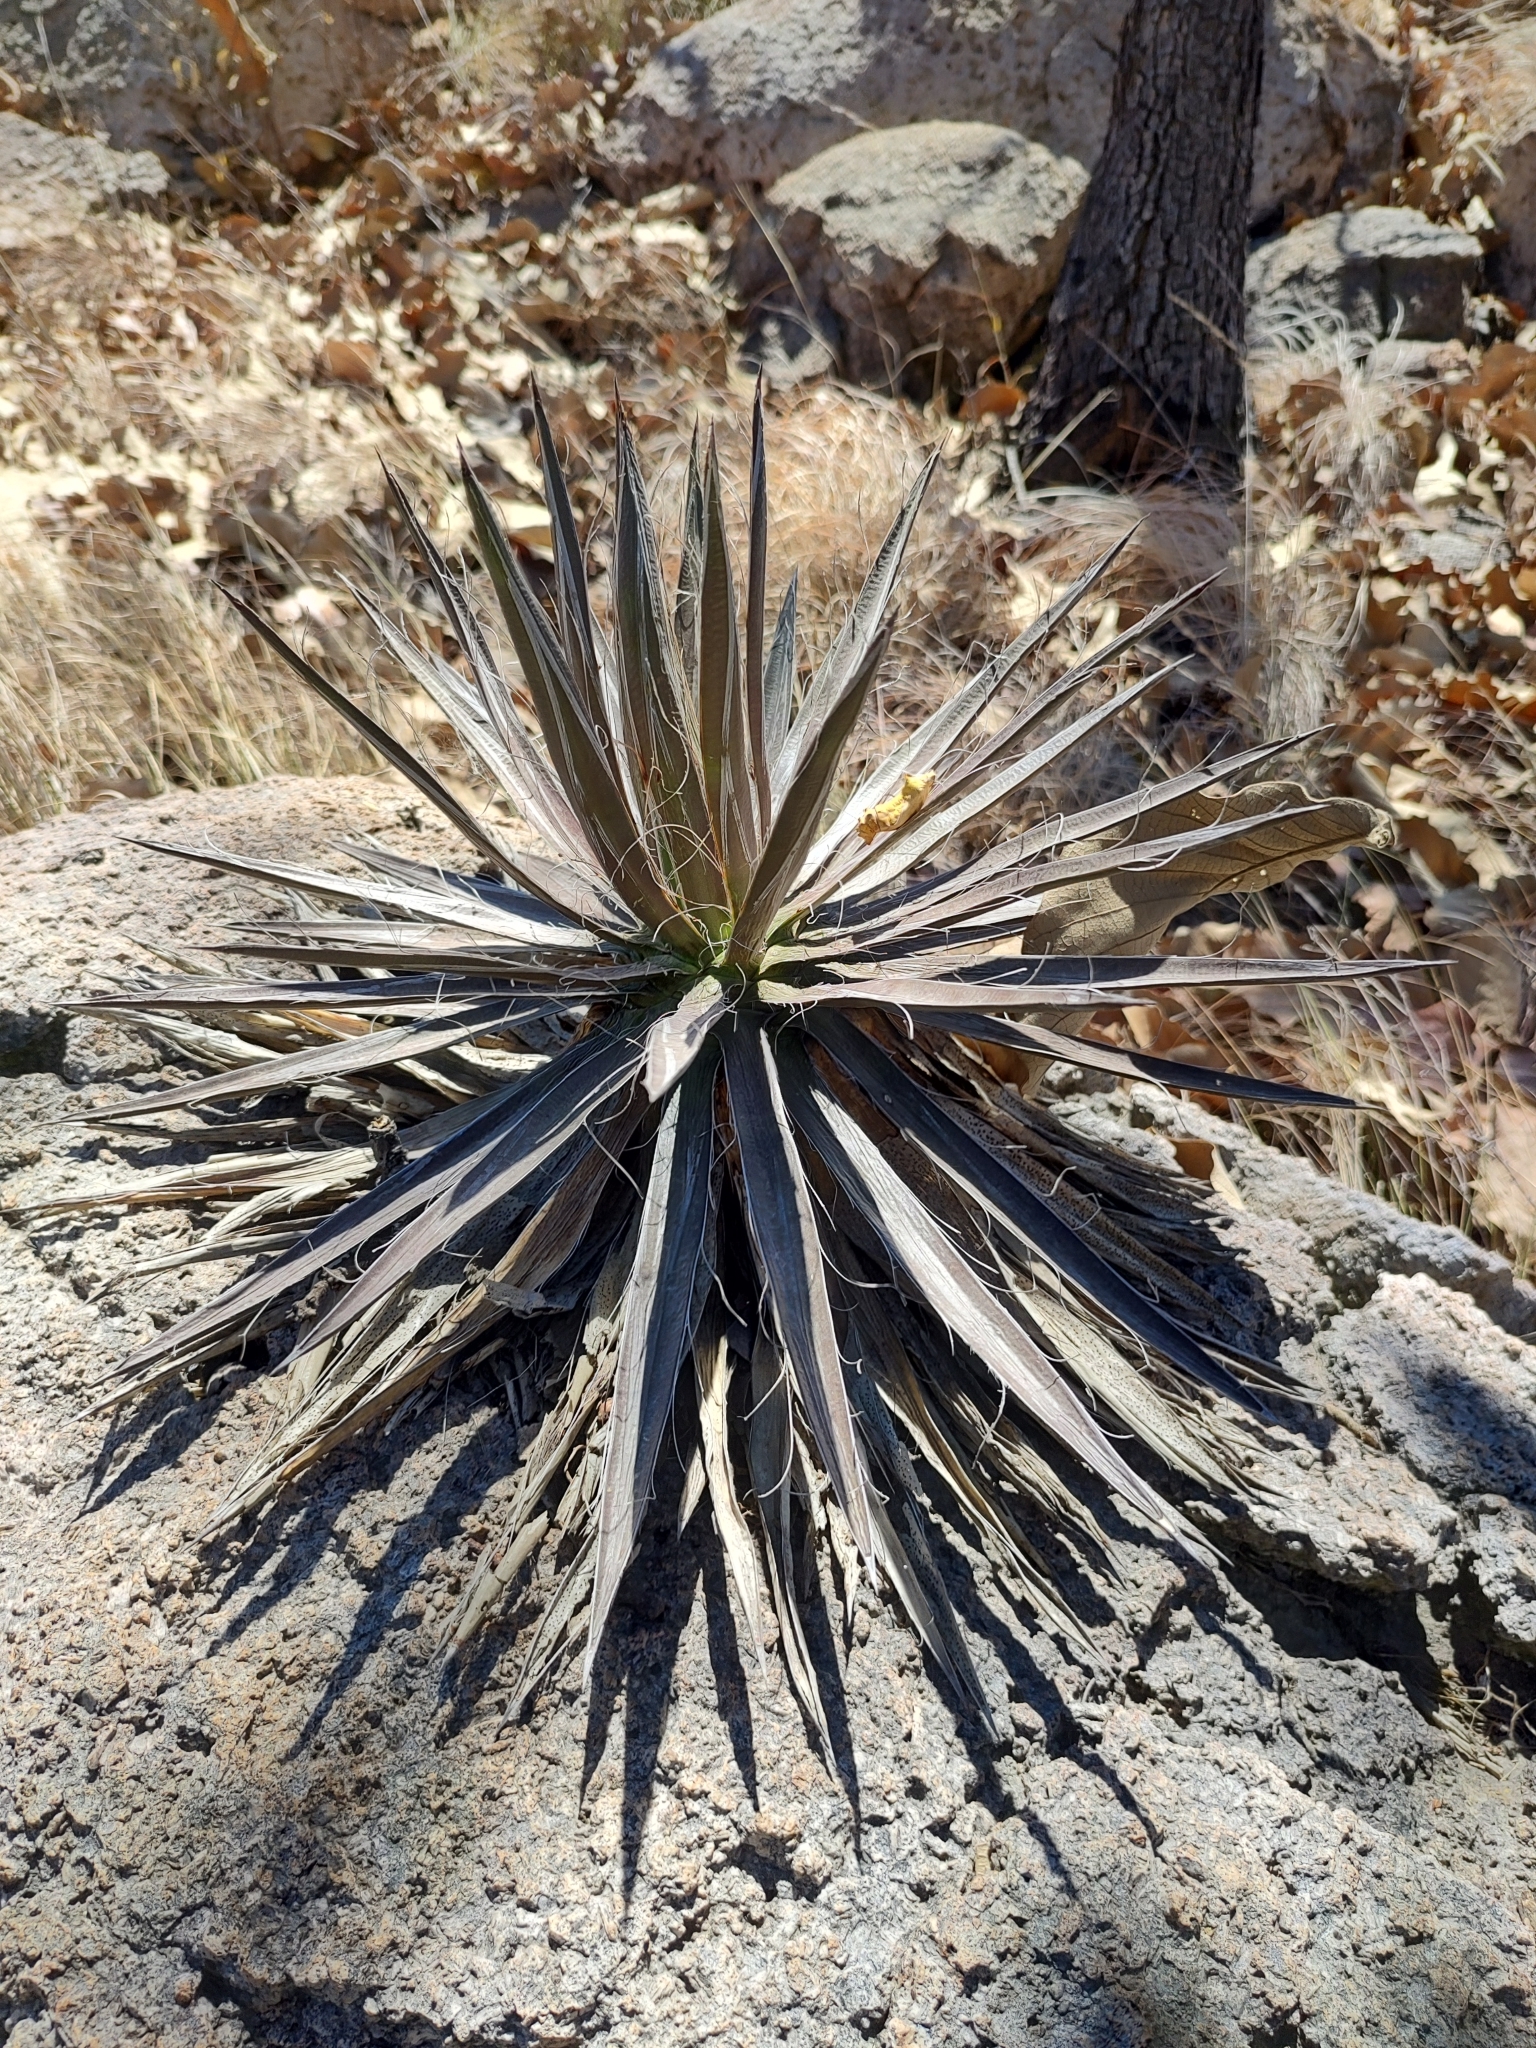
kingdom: Plantae
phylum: Tracheophyta
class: Liliopsida
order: Asparagales
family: Asparagaceae
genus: Agave
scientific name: Agave schidigera
